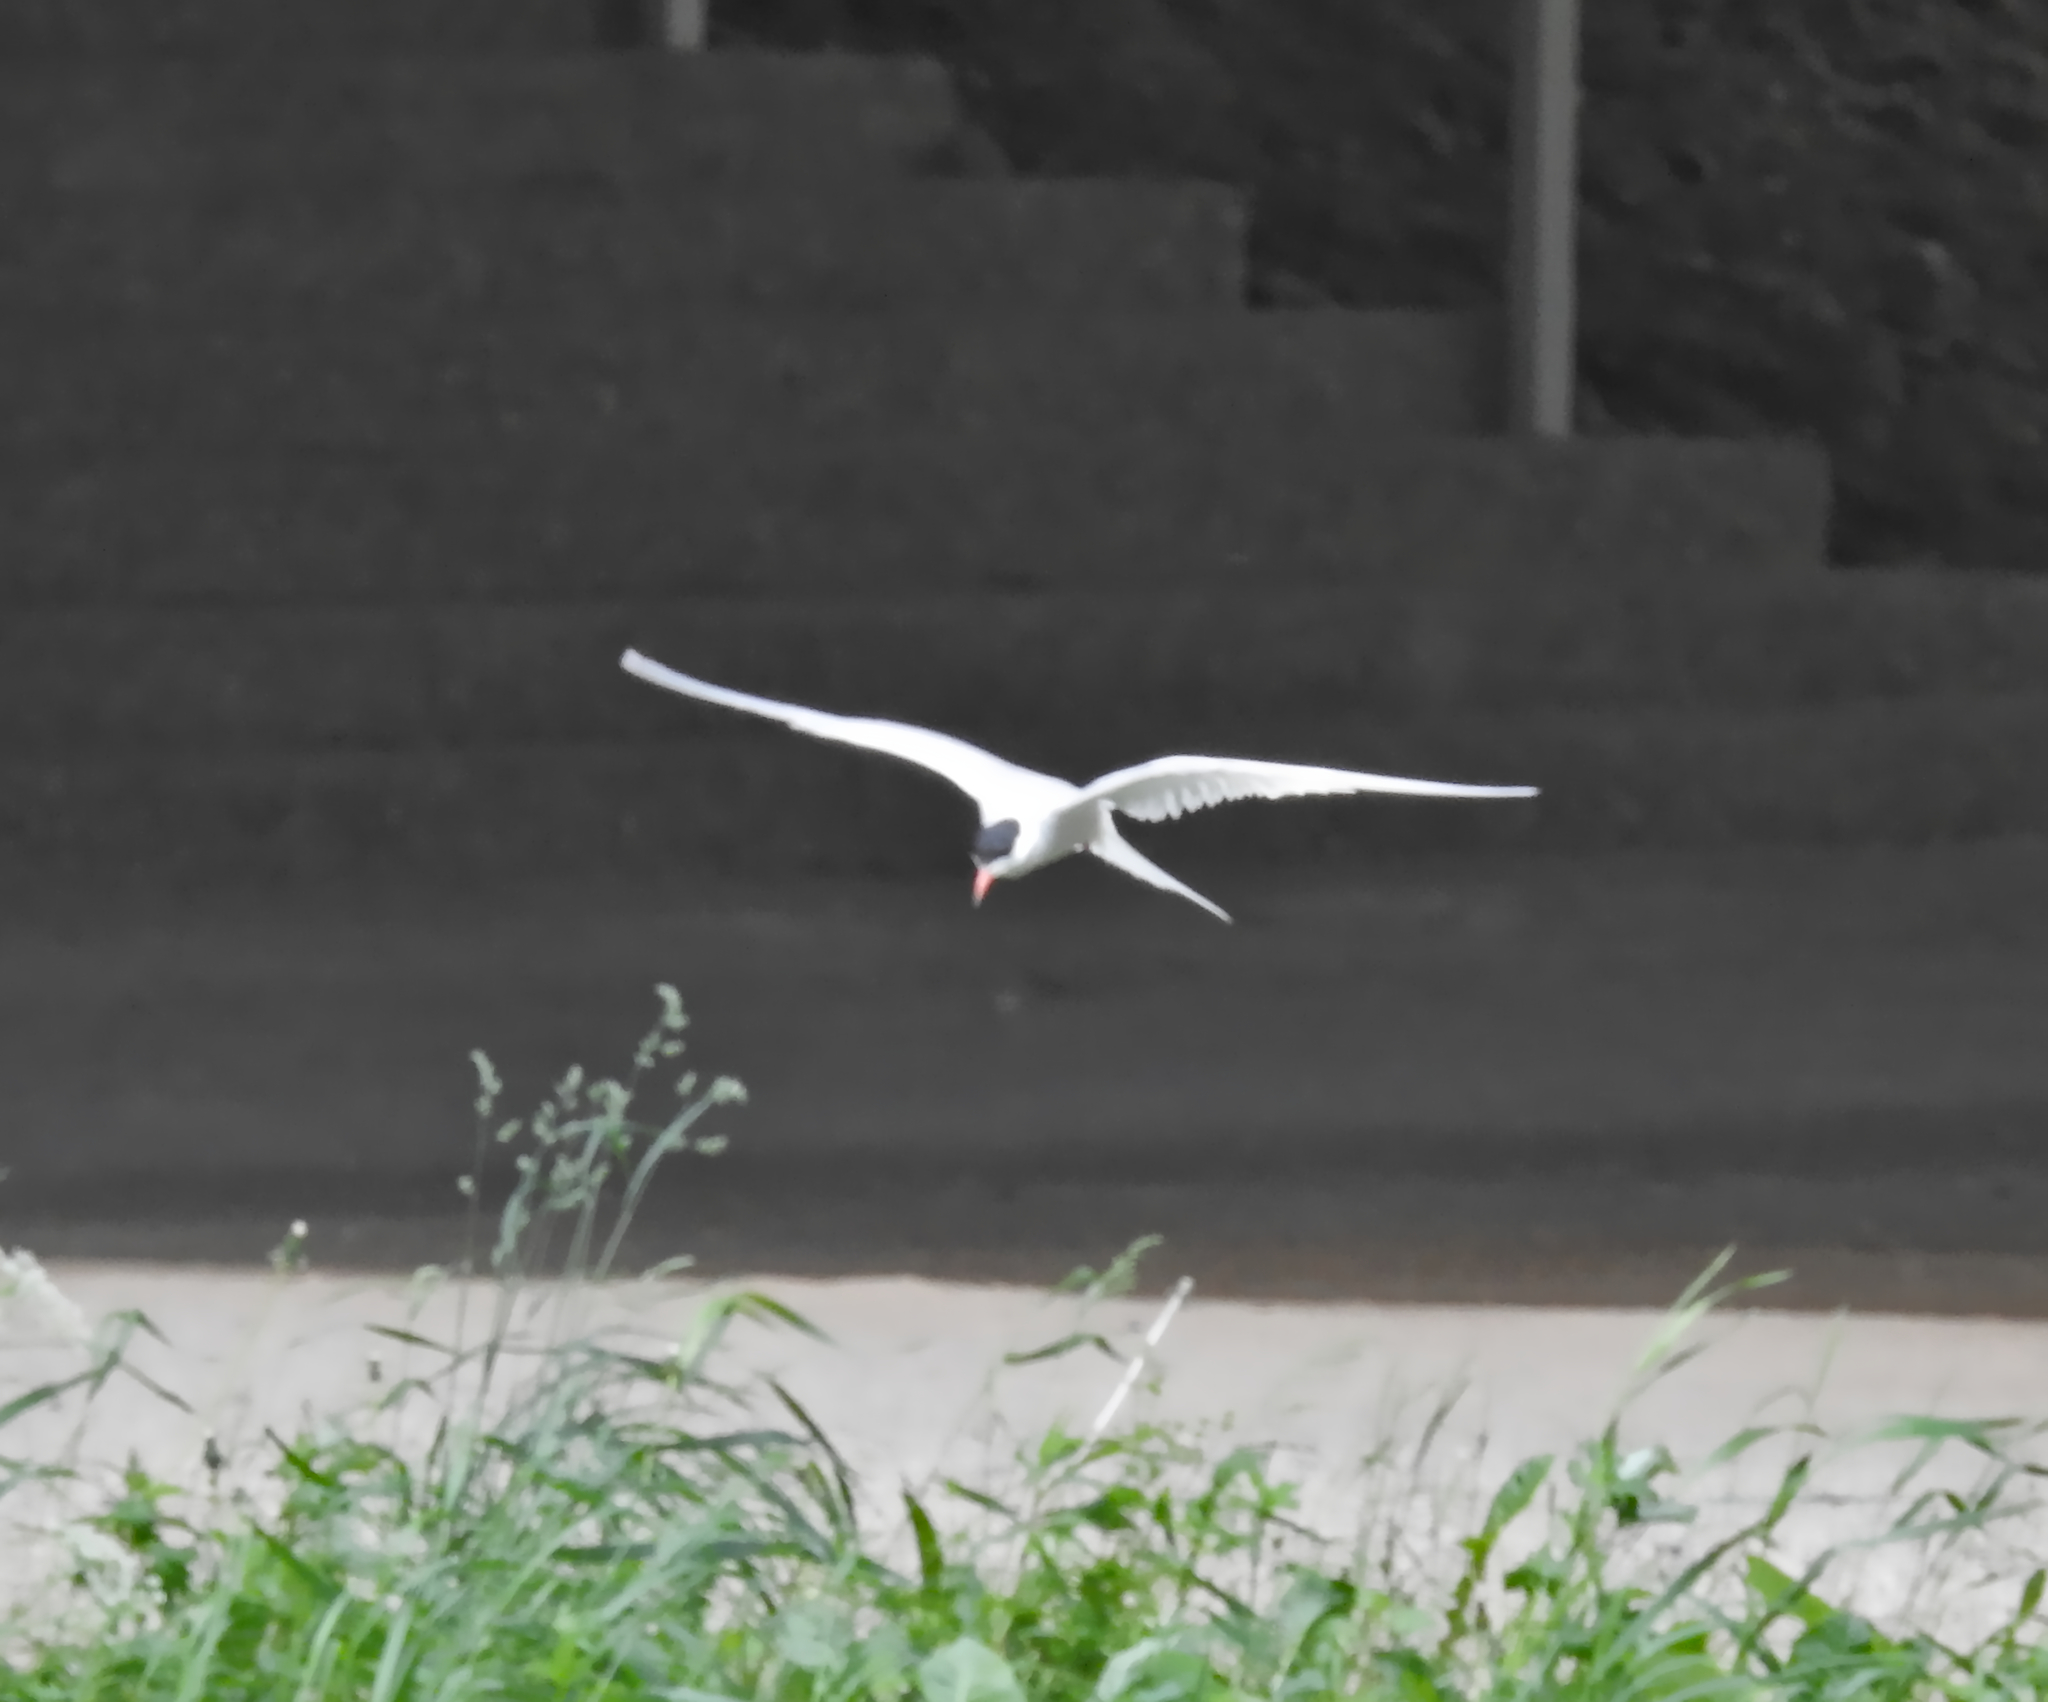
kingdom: Animalia
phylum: Chordata
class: Aves
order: Charadriiformes
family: Laridae
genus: Sterna
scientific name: Sterna hirundo
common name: Common tern
